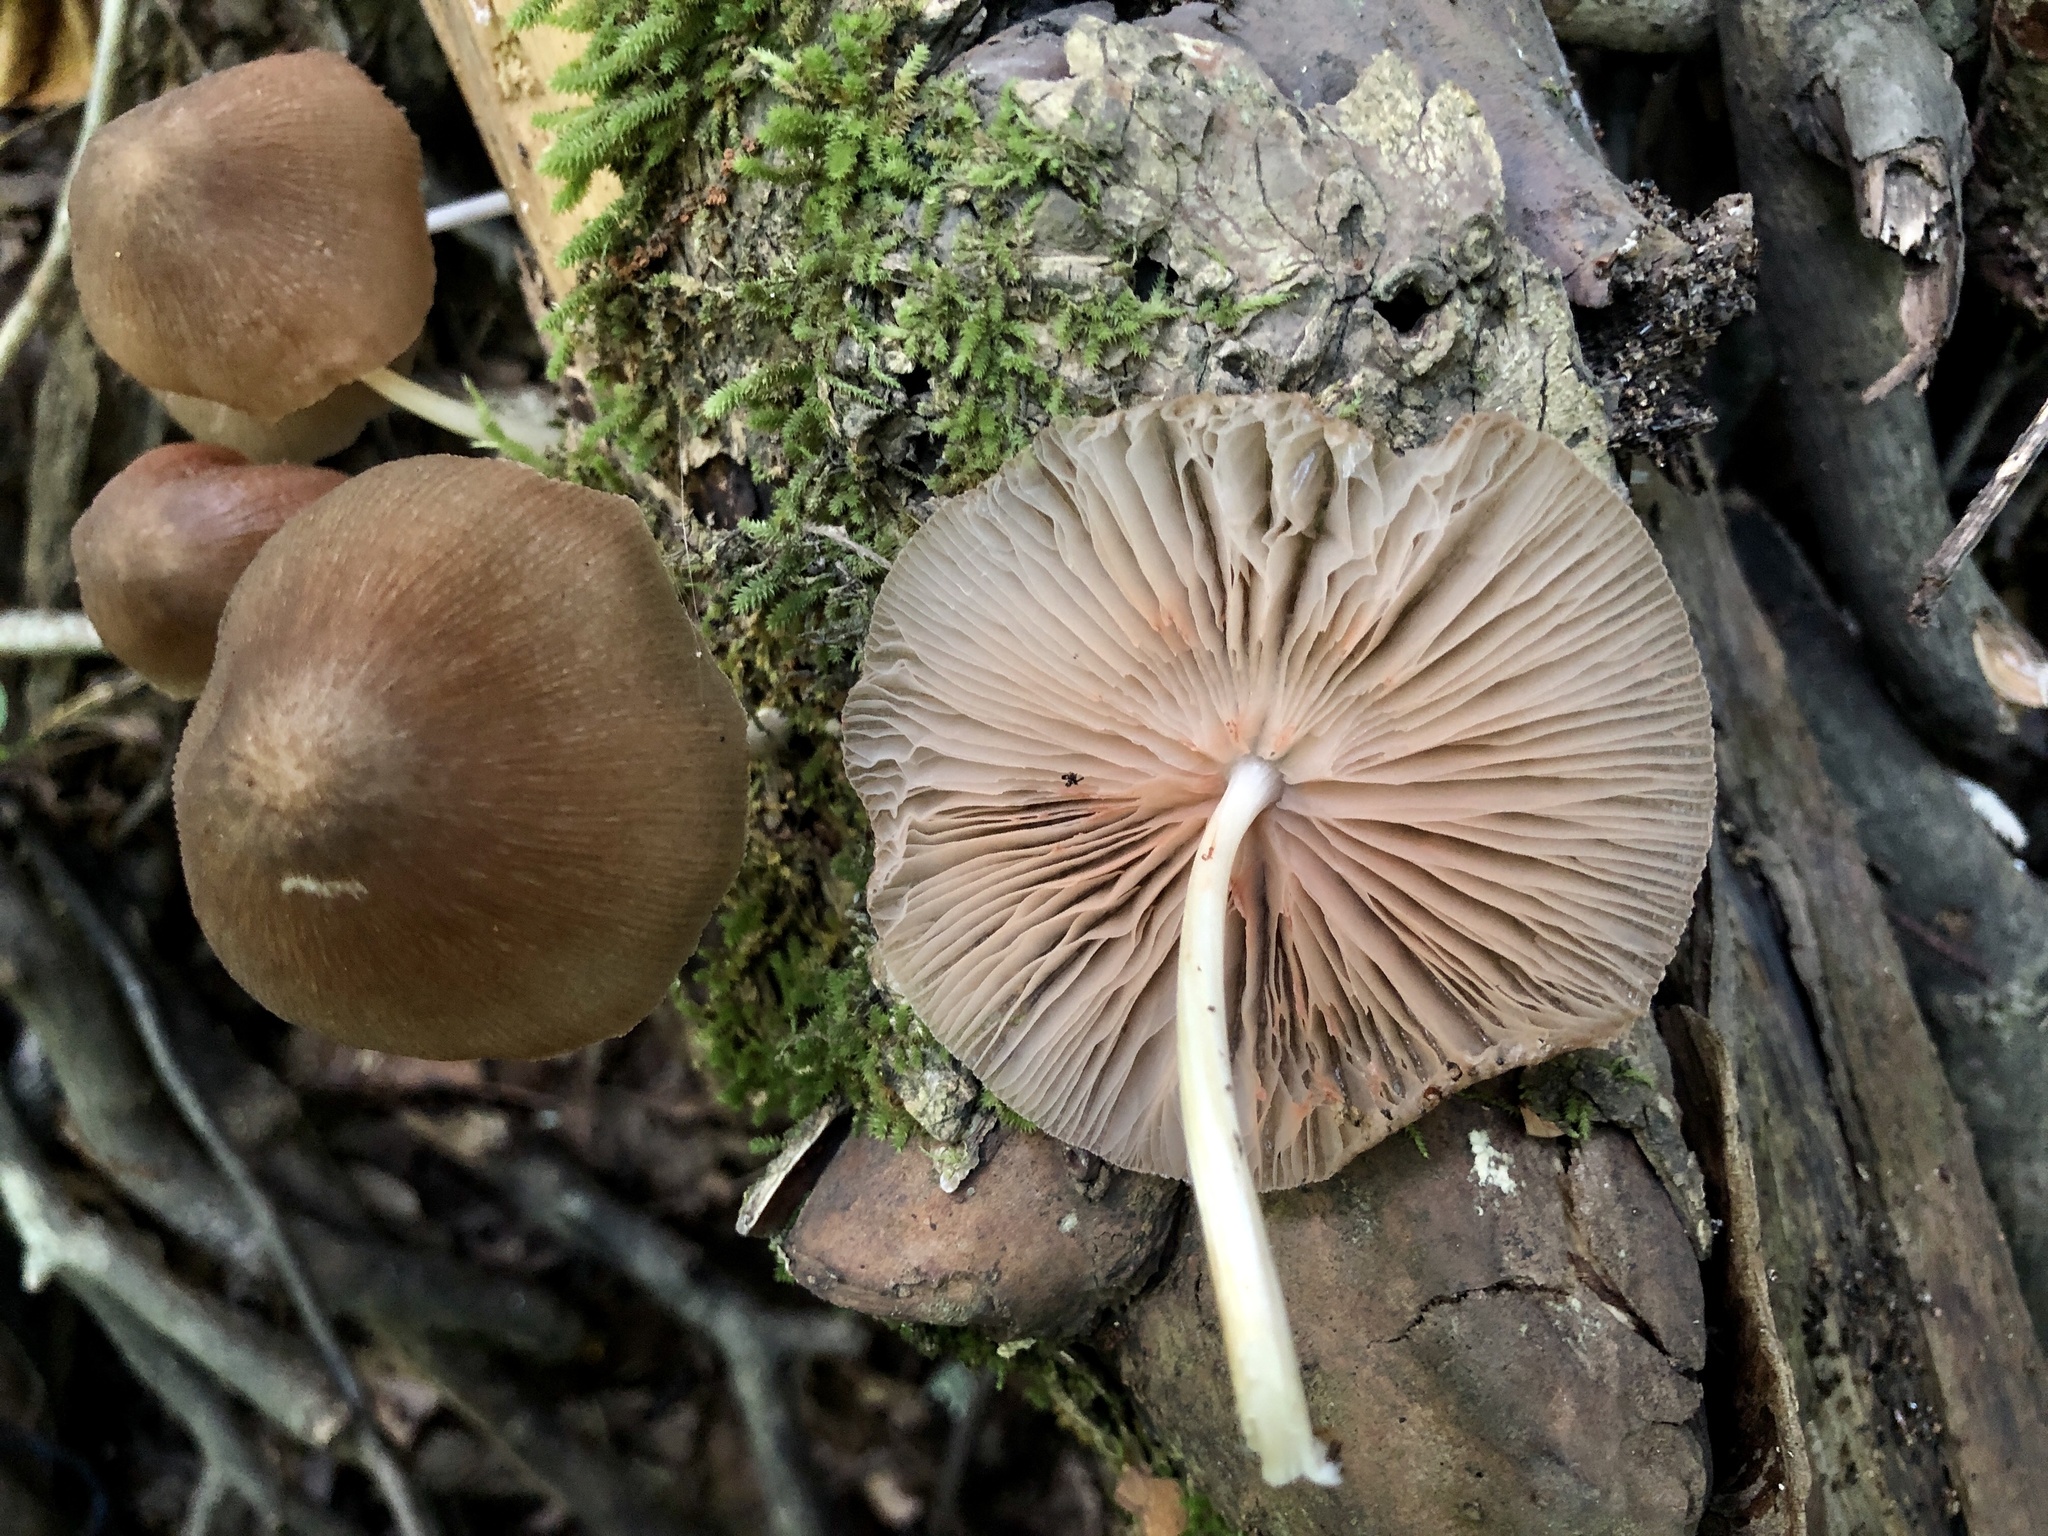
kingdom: Fungi
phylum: Basidiomycota
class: Agaricomycetes
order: Agaricales
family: Pluteaceae
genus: Pluteus
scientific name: Pluteus longistriatus
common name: Pleated pluteus
